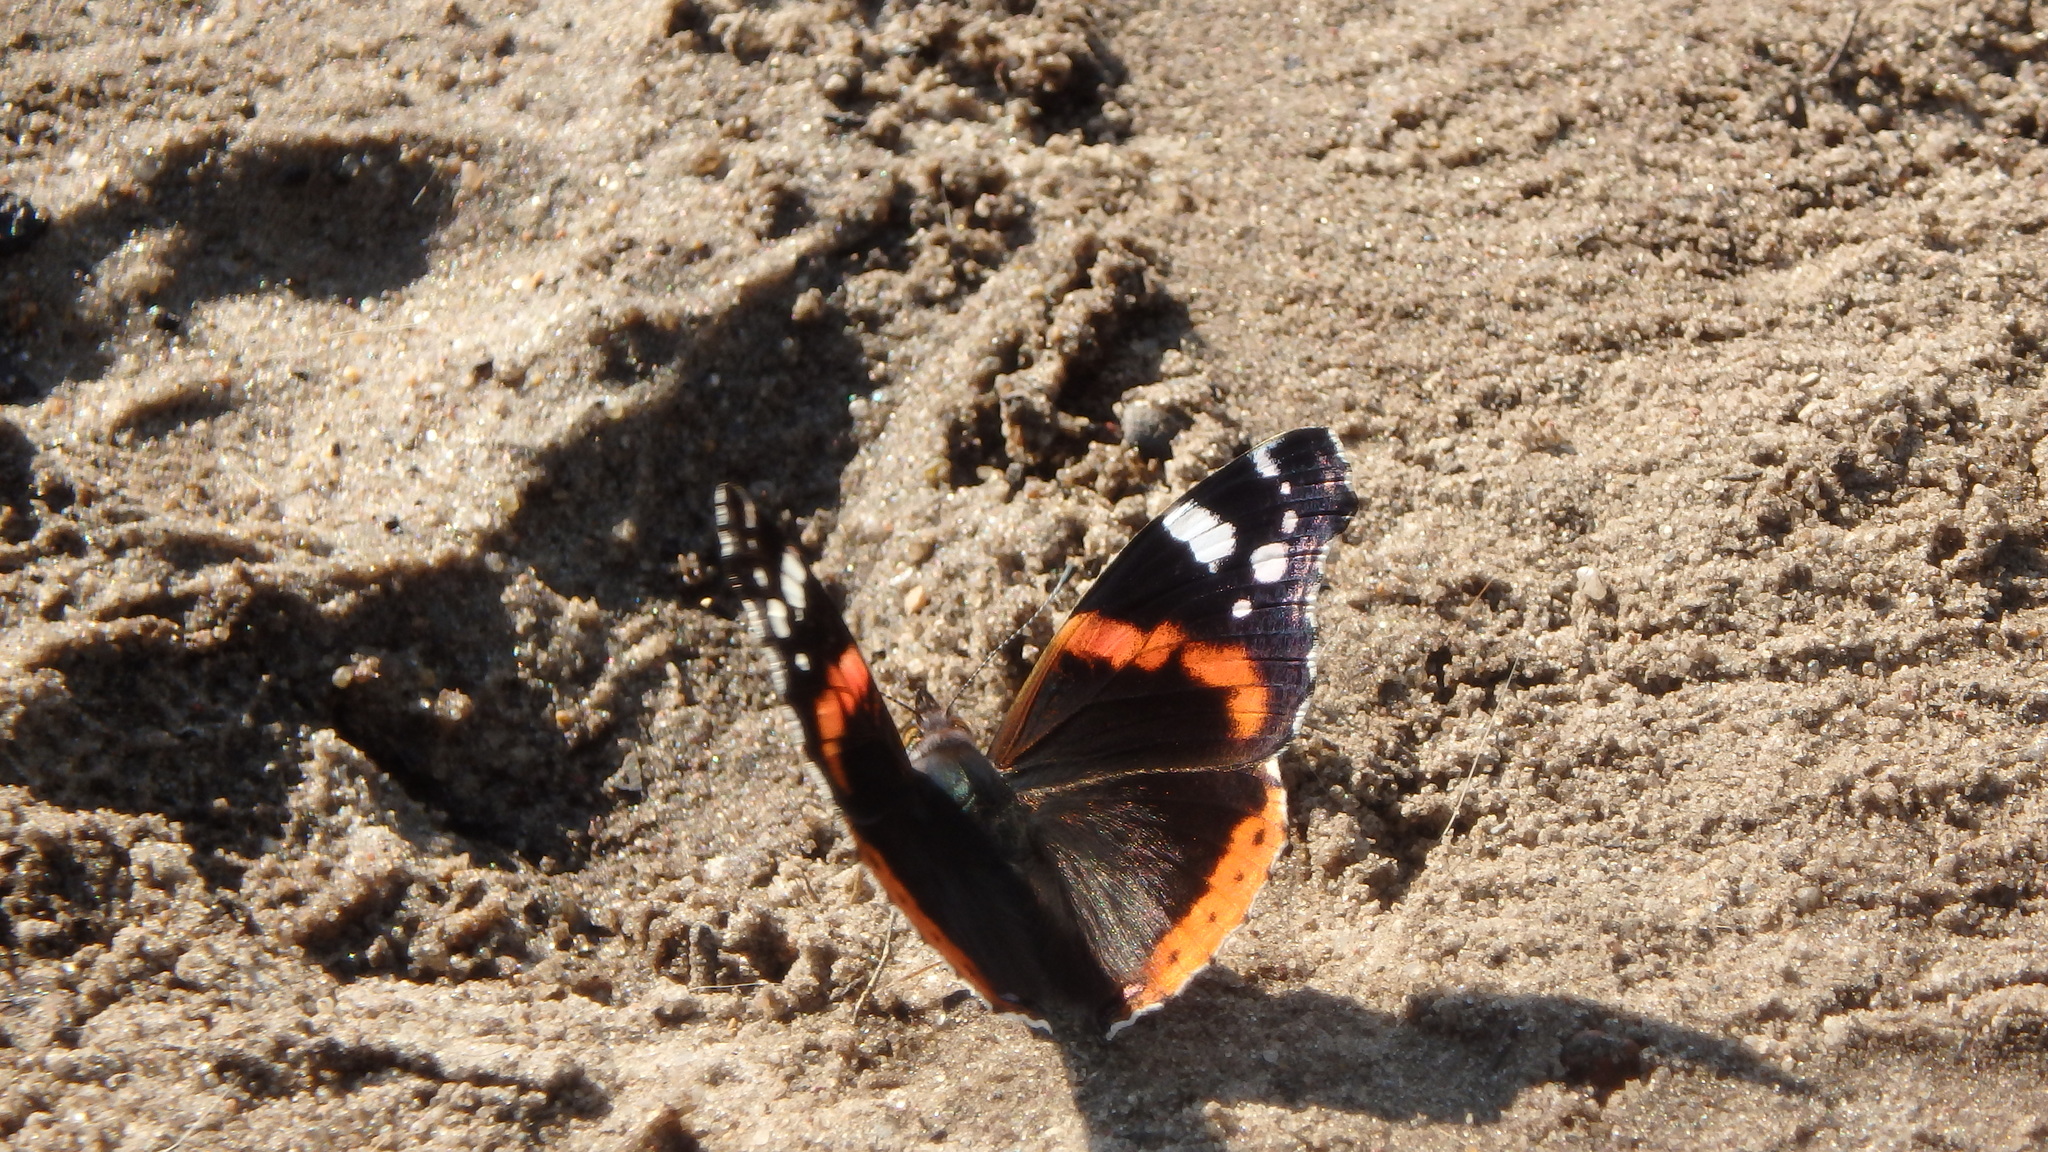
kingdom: Animalia
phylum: Arthropoda
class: Insecta
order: Lepidoptera
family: Nymphalidae
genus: Vanessa
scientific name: Vanessa atalanta
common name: Red admiral
